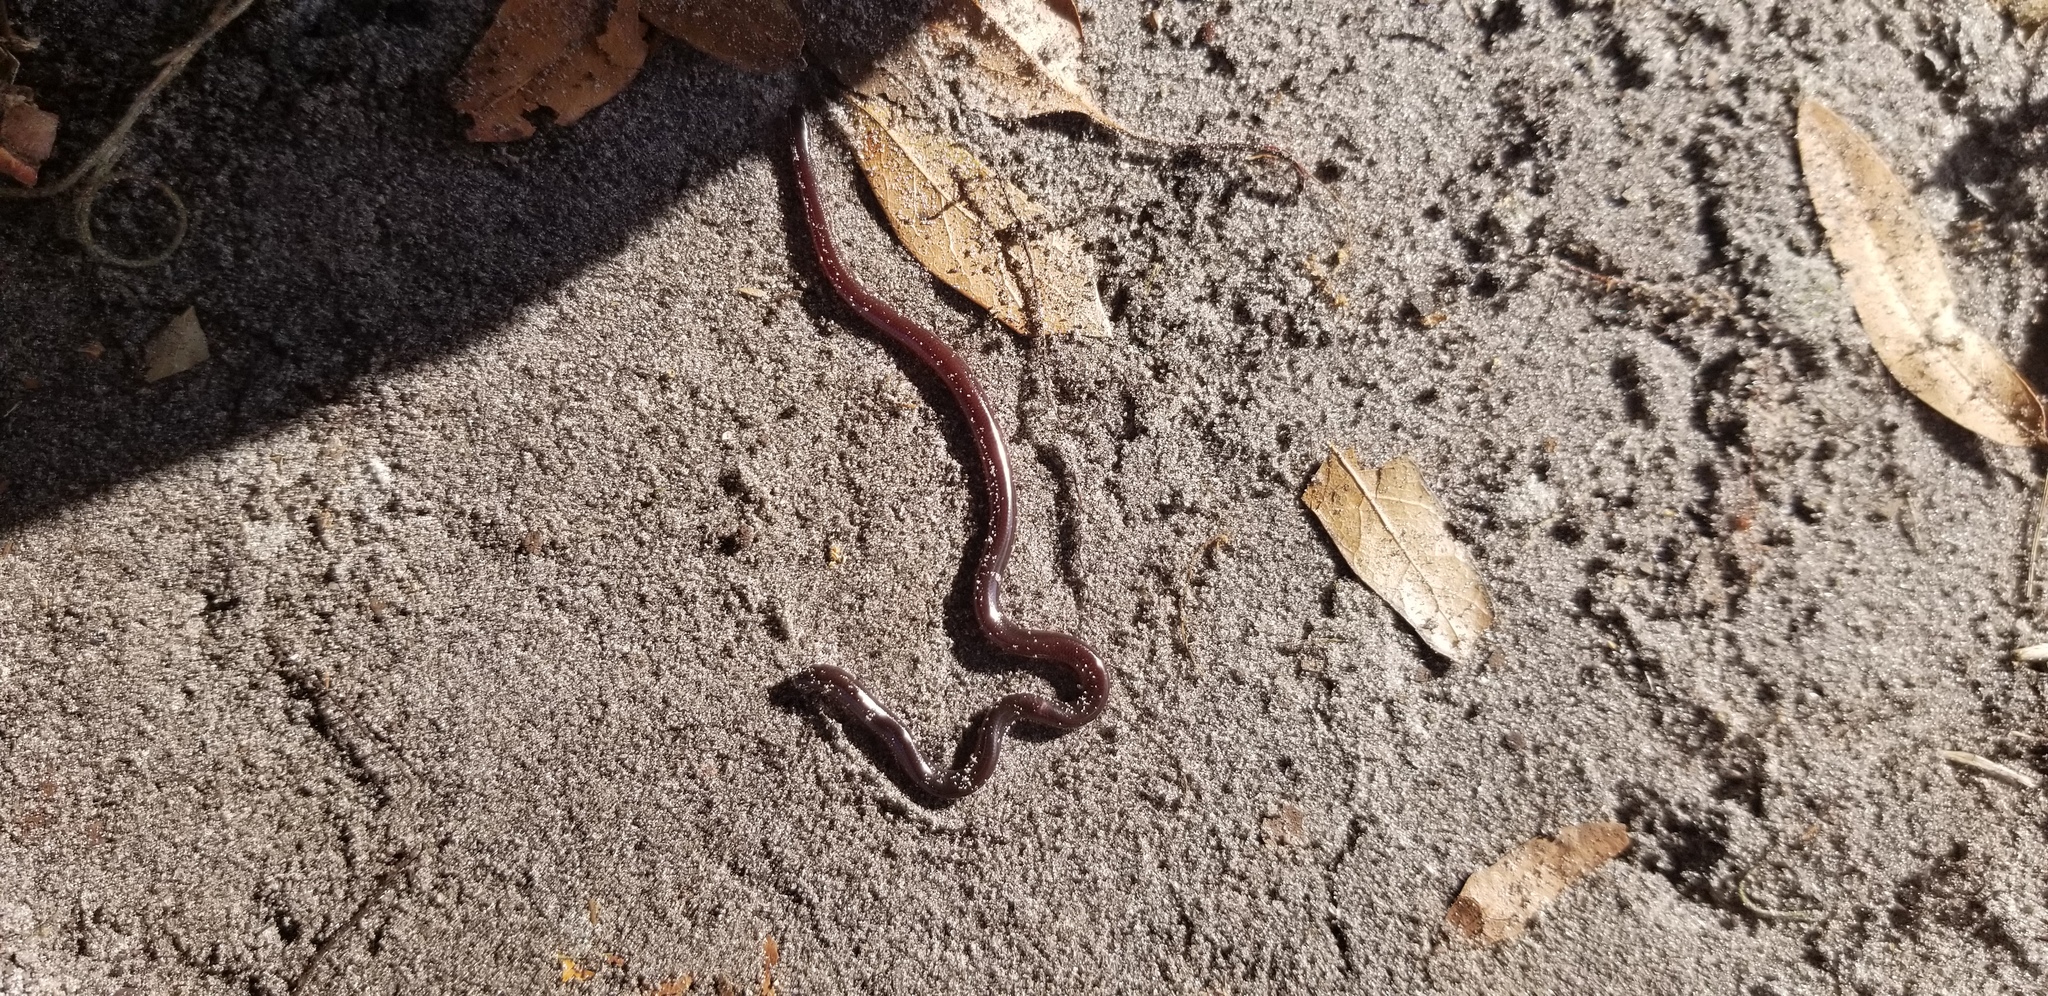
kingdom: Animalia
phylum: Chordata
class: Squamata
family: Typhlopidae
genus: Indotyphlops
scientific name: Indotyphlops braminus
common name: Brahminy blindsnake
